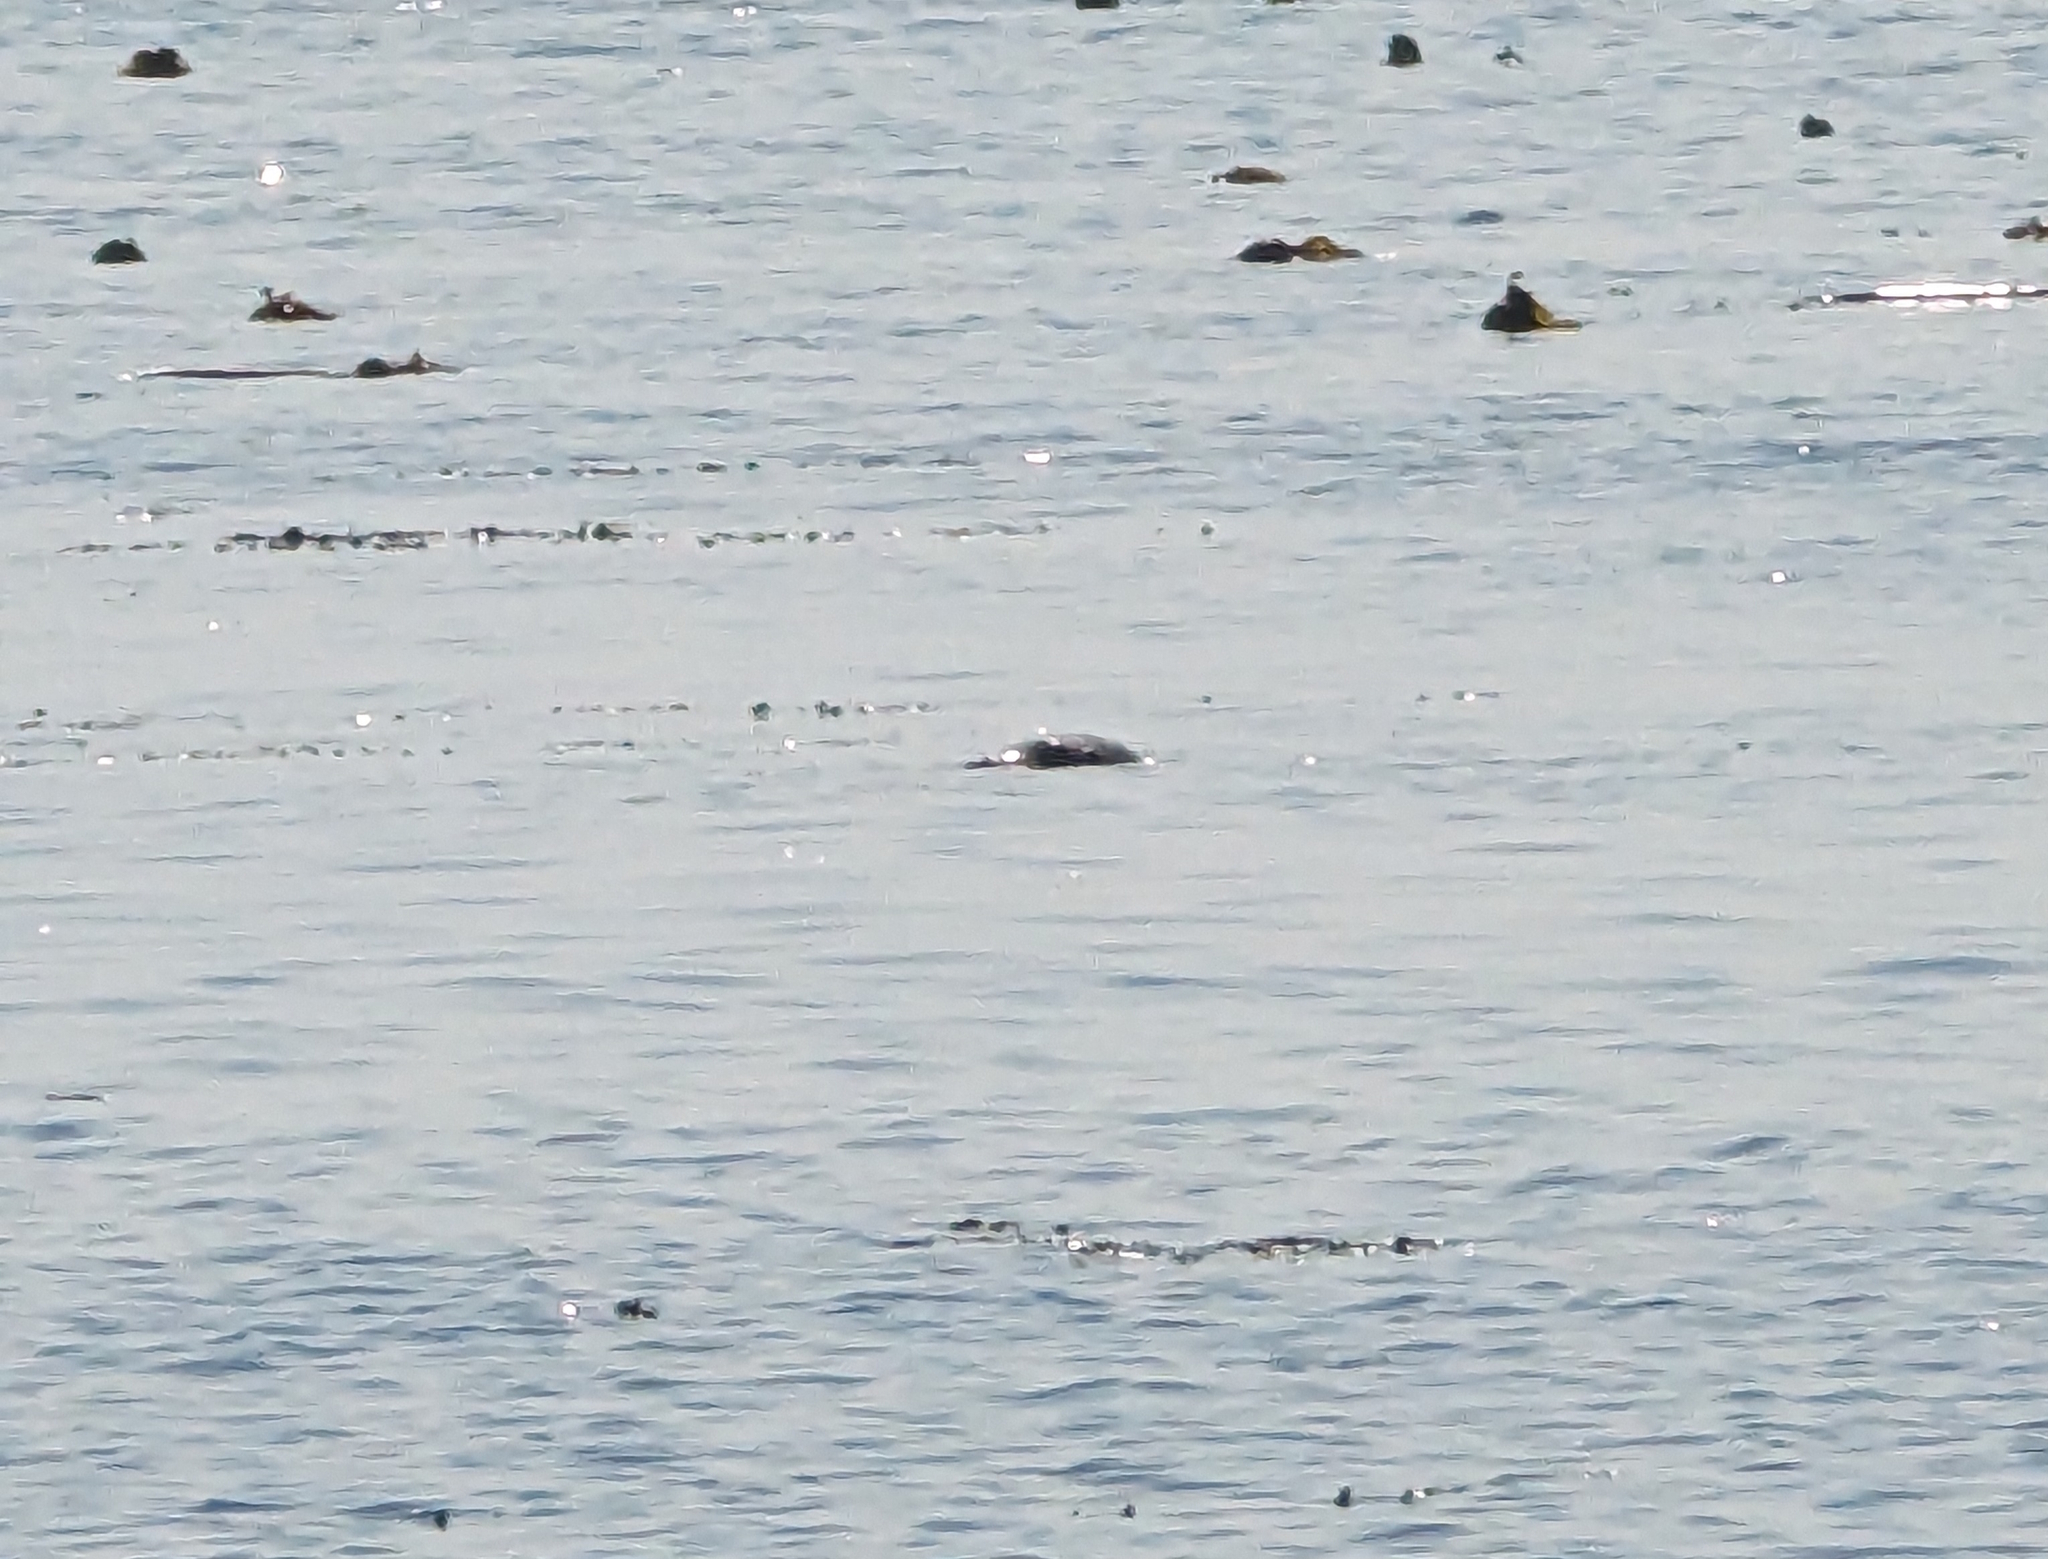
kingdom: Animalia
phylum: Chordata
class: Mammalia
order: Carnivora
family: Phocidae
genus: Phoca
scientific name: Phoca vitulina
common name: Harbor seal
